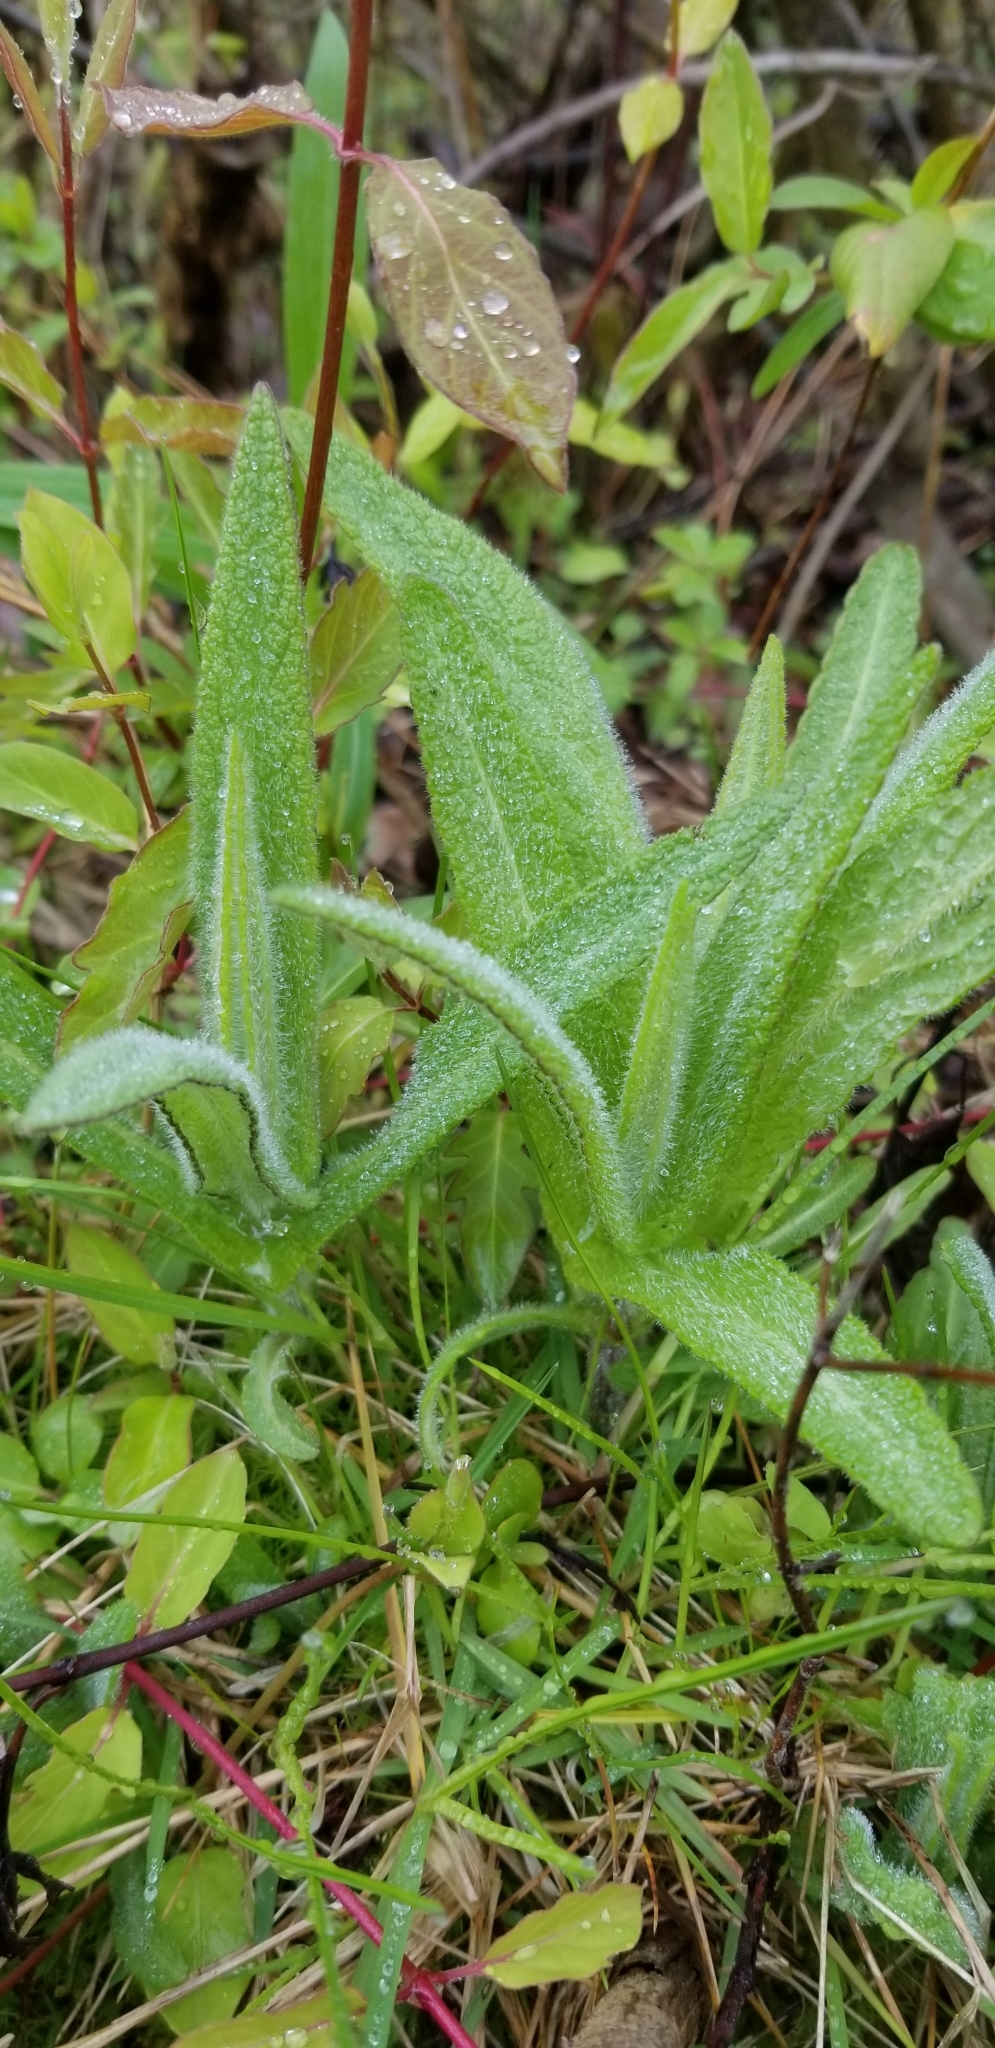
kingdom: Plantae
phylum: Tracheophyta
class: Magnoliopsida
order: Asterales
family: Asteraceae
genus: Eupatorium
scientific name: Eupatorium perfoliatum
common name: Boneset
